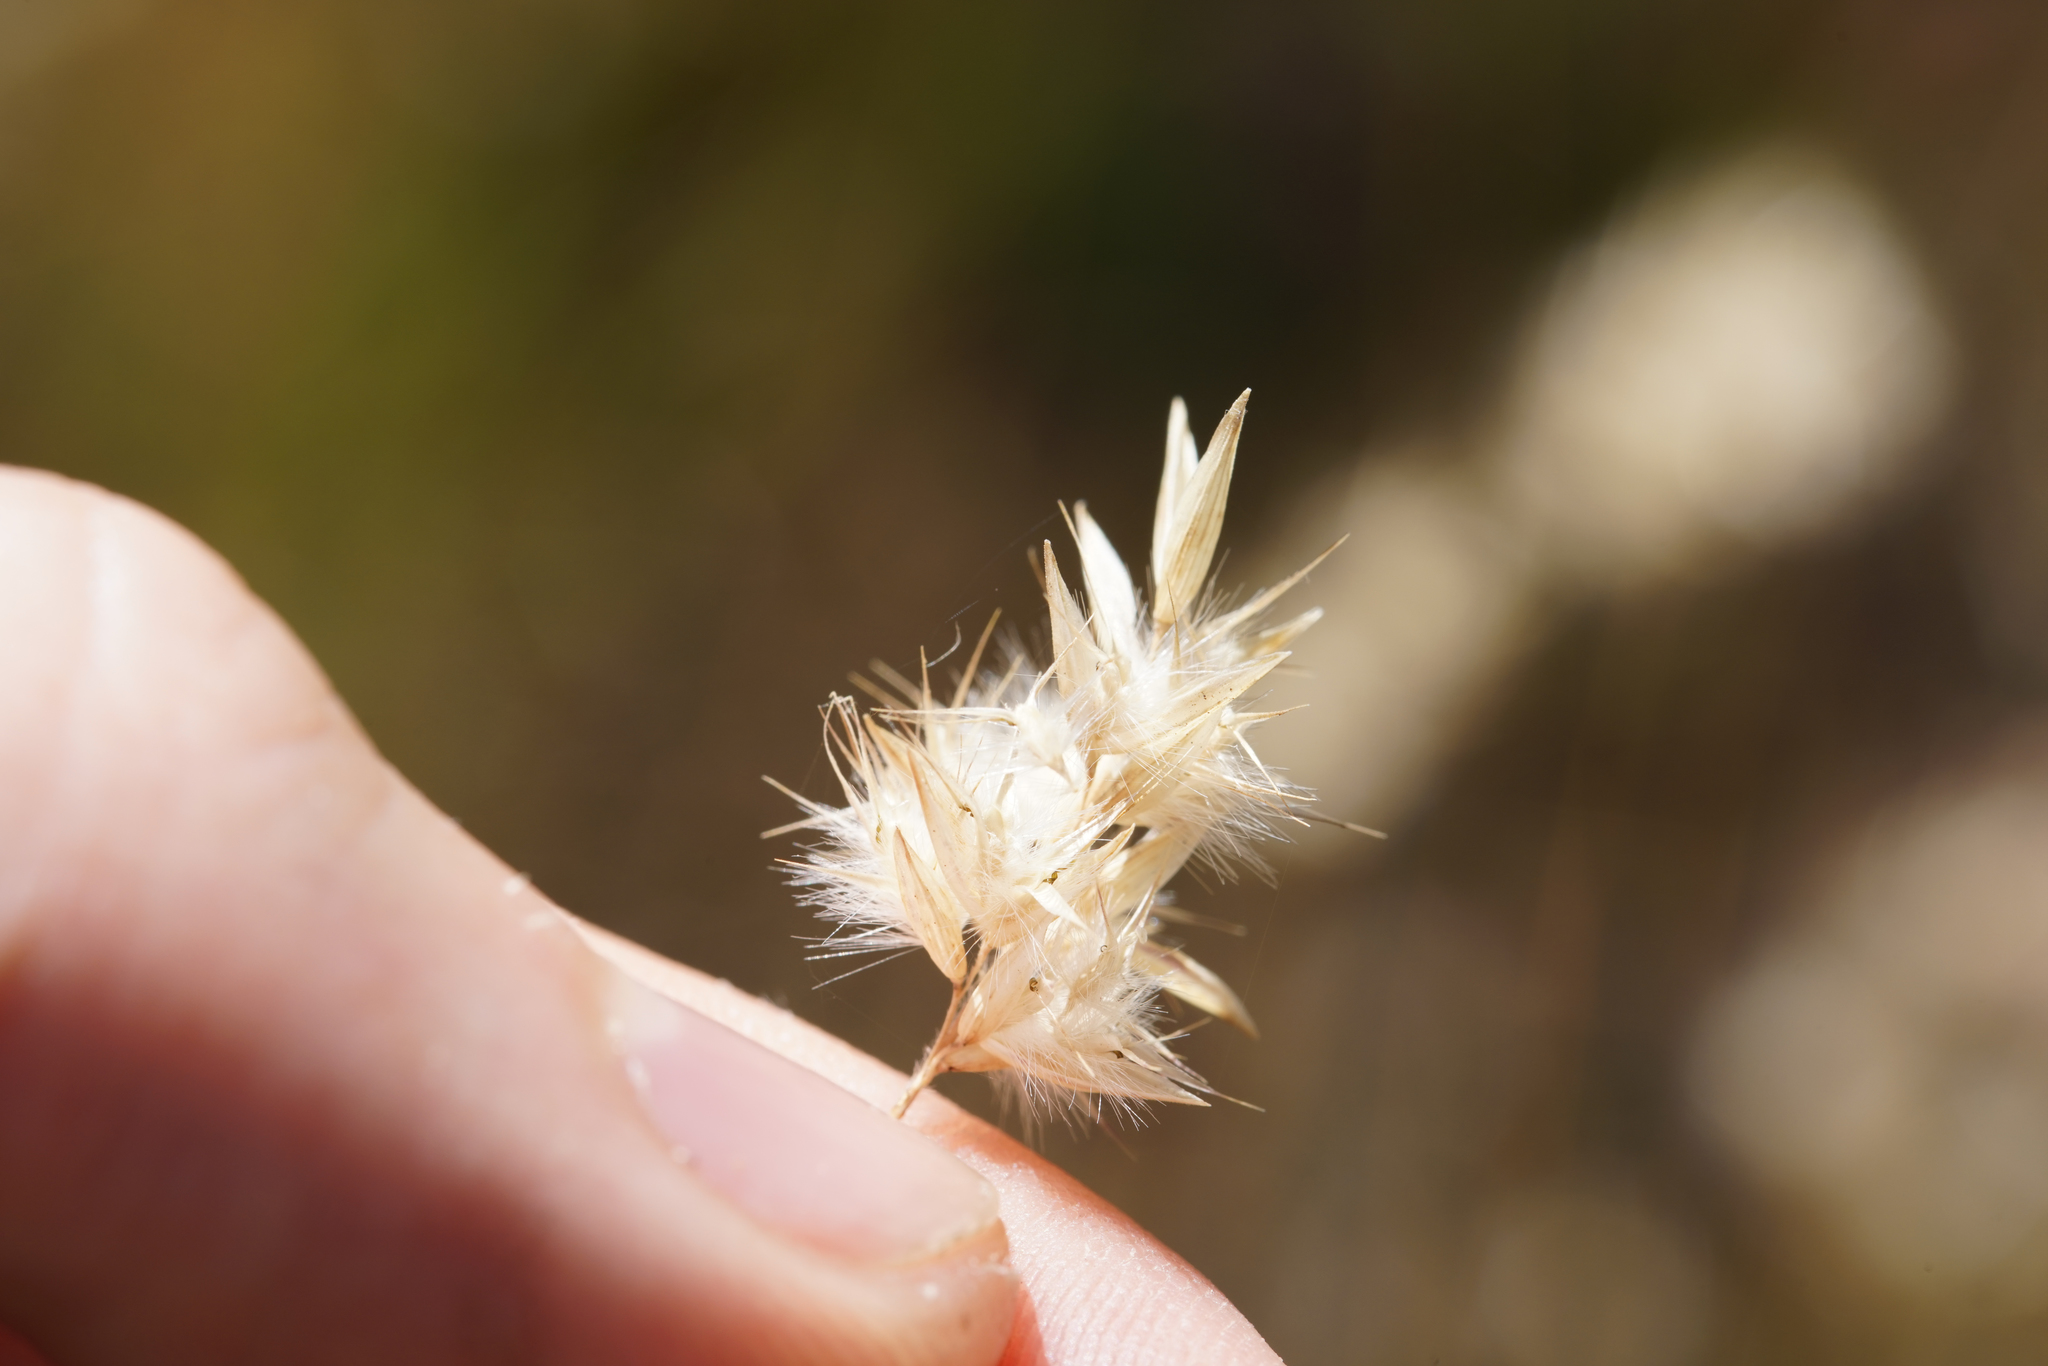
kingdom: Plantae
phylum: Tracheophyta
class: Liliopsida
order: Poales
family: Poaceae
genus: Rytidosperma
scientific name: Rytidosperma geniculatum
